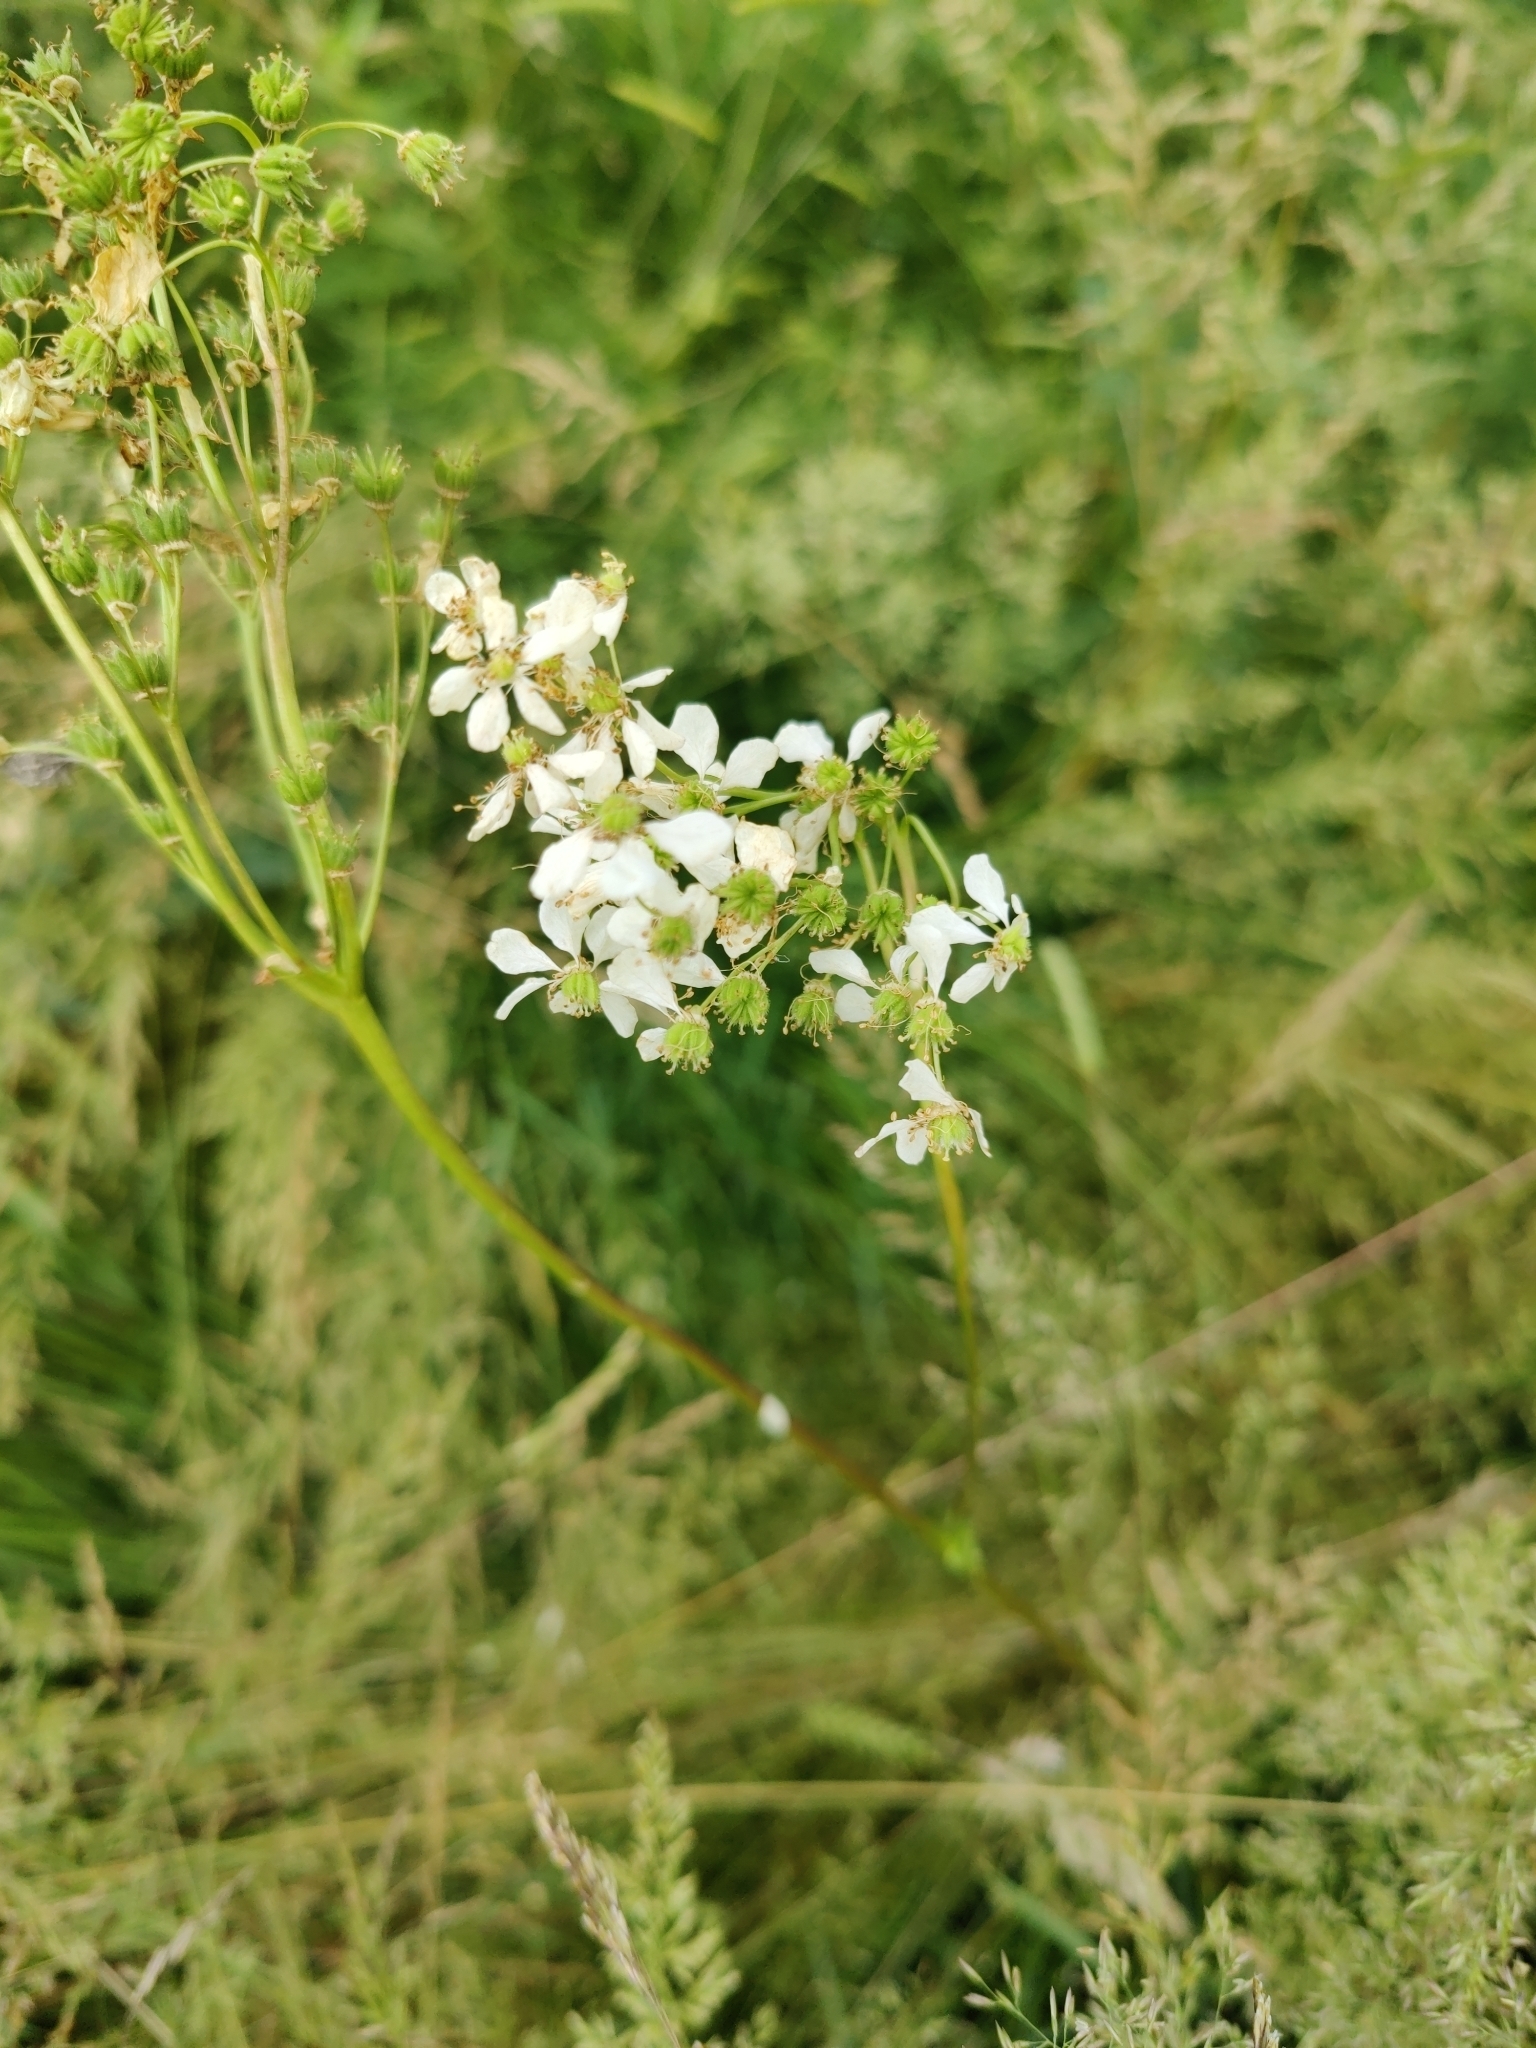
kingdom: Plantae
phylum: Tracheophyta
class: Magnoliopsida
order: Rosales
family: Rosaceae
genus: Filipendula
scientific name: Filipendula vulgaris
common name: Dropwort
